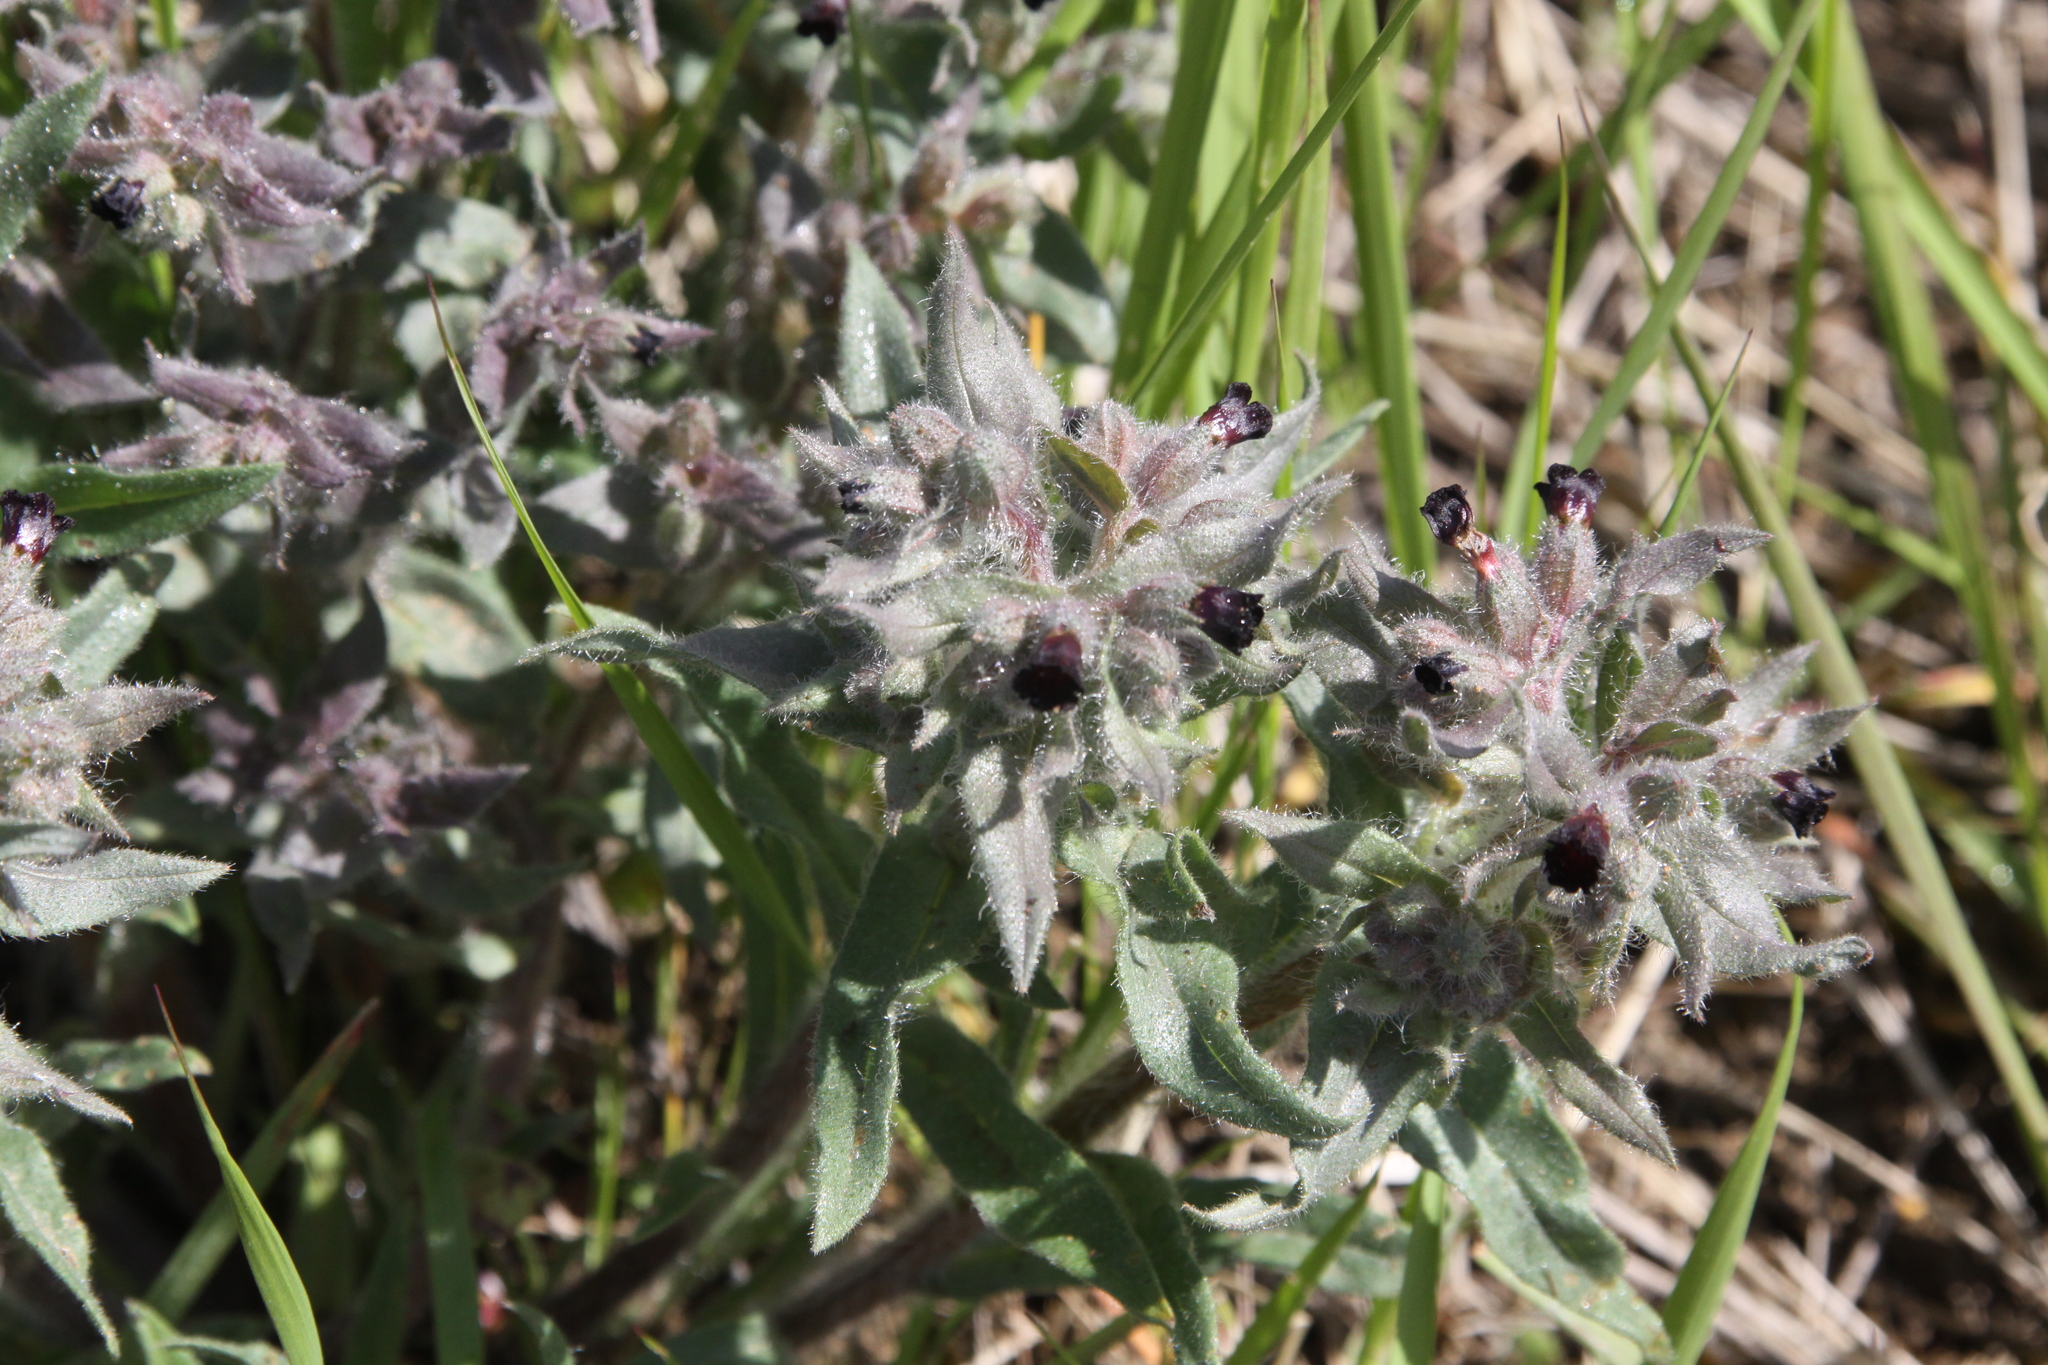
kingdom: Plantae
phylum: Tracheophyta
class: Magnoliopsida
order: Boraginales
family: Boraginaceae
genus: Nonea
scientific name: Nonea pulla
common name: Brown nonea
